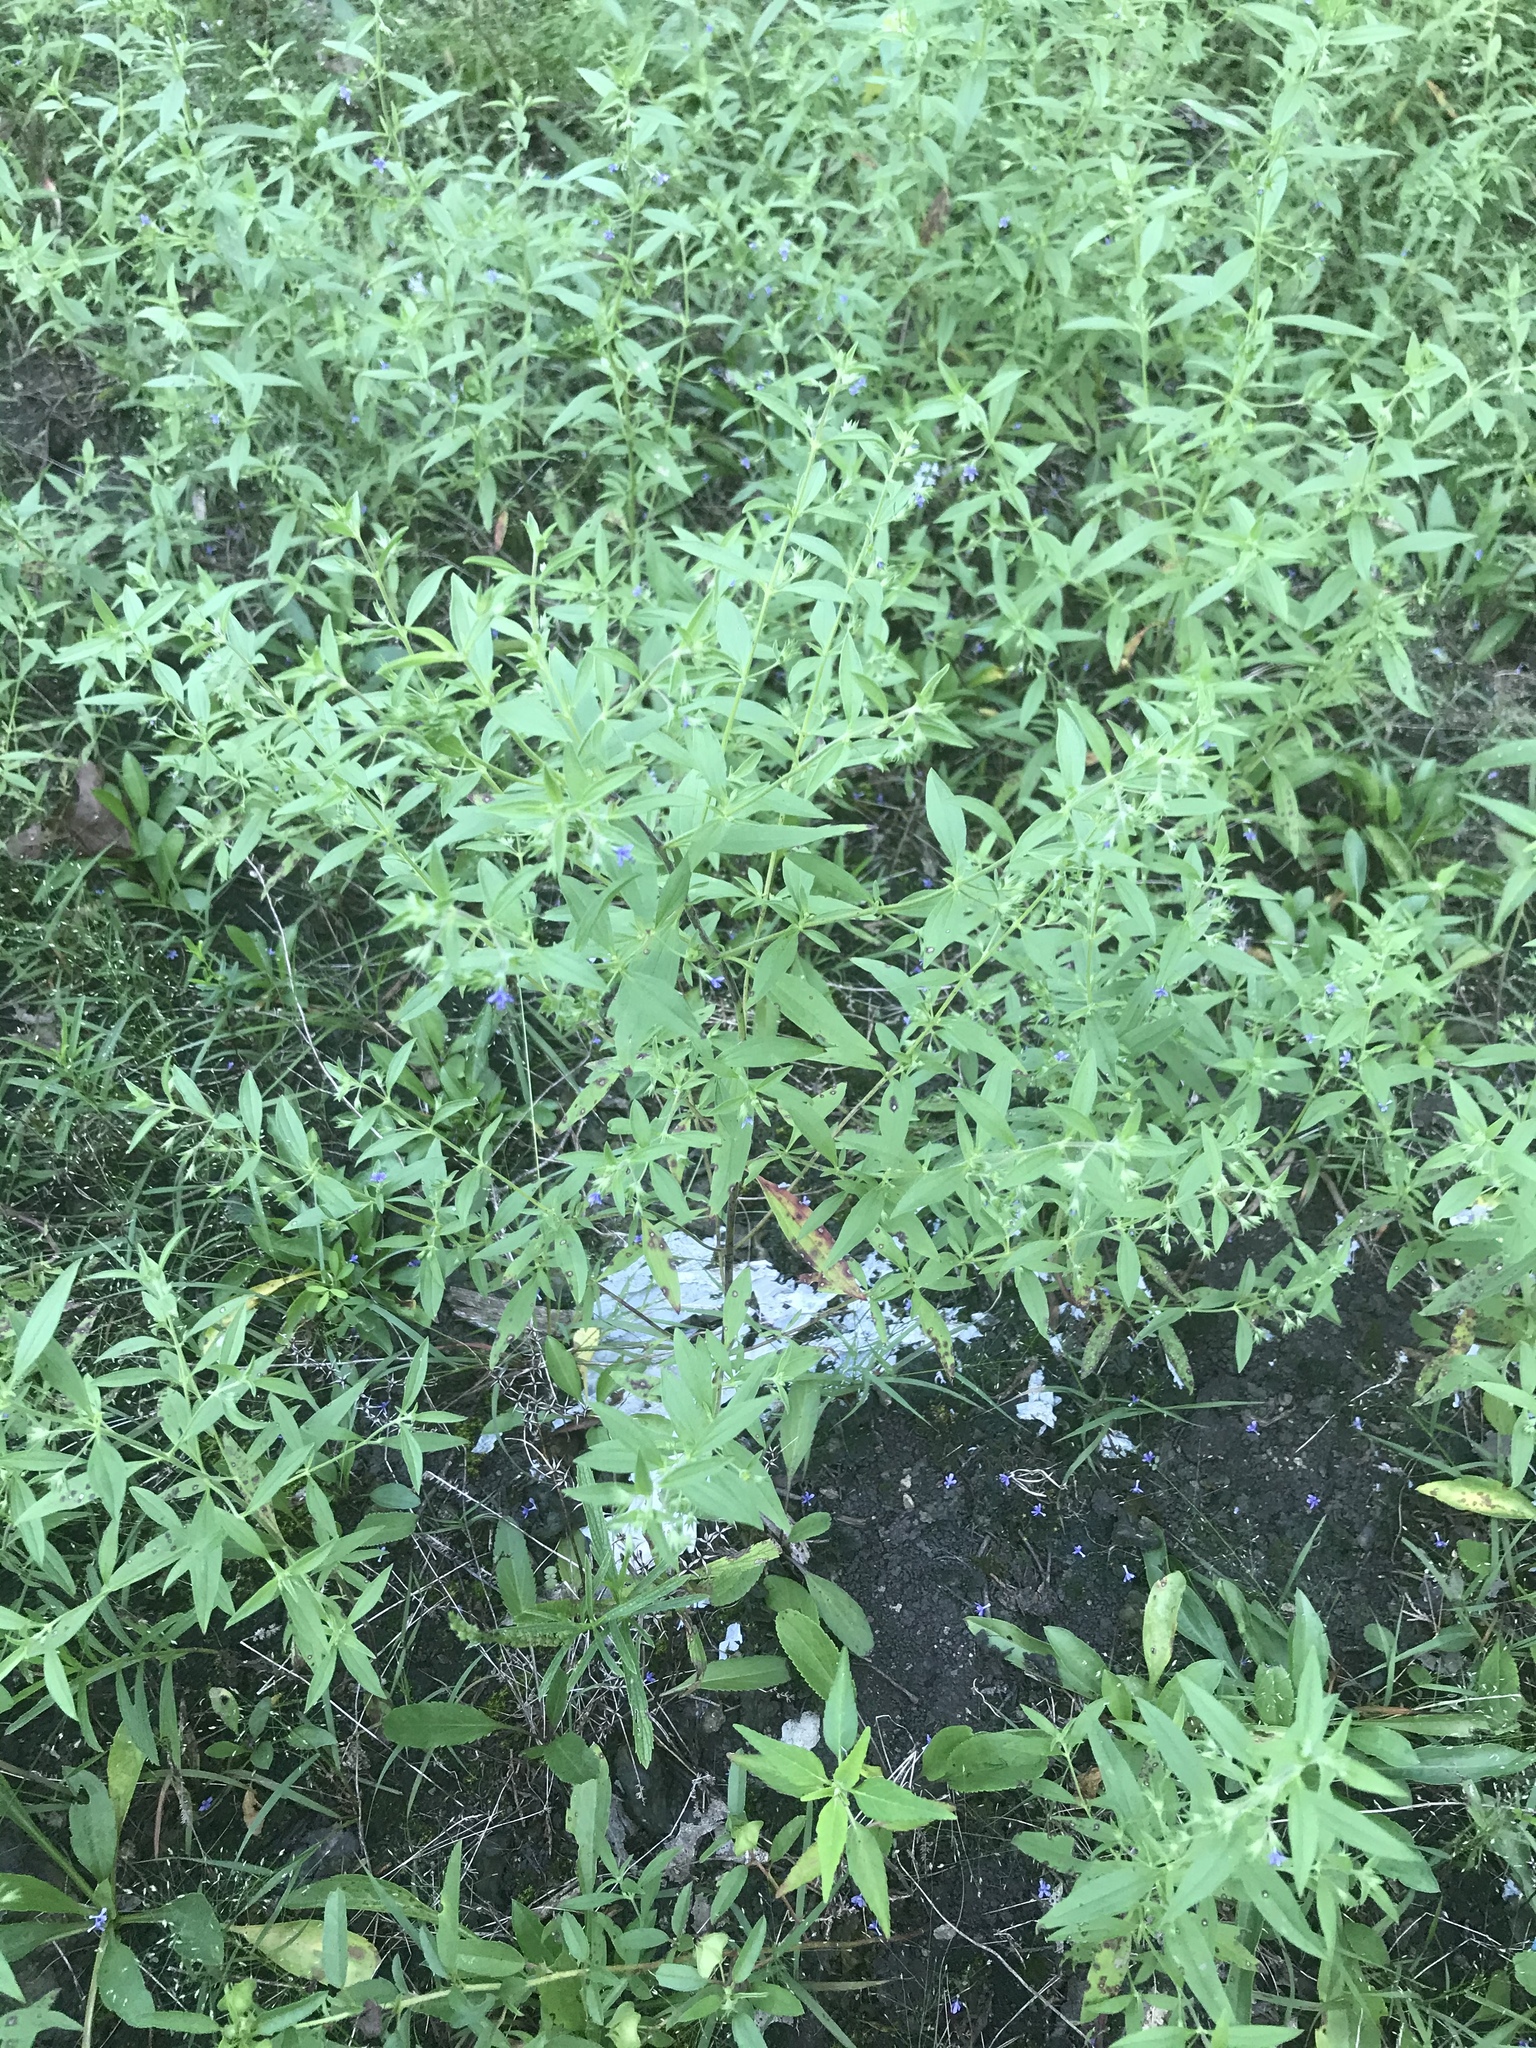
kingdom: Plantae
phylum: Tracheophyta
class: Magnoliopsida
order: Lamiales
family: Lamiaceae
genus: Trichostema
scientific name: Trichostema brachiatum
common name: False pennyroyal
